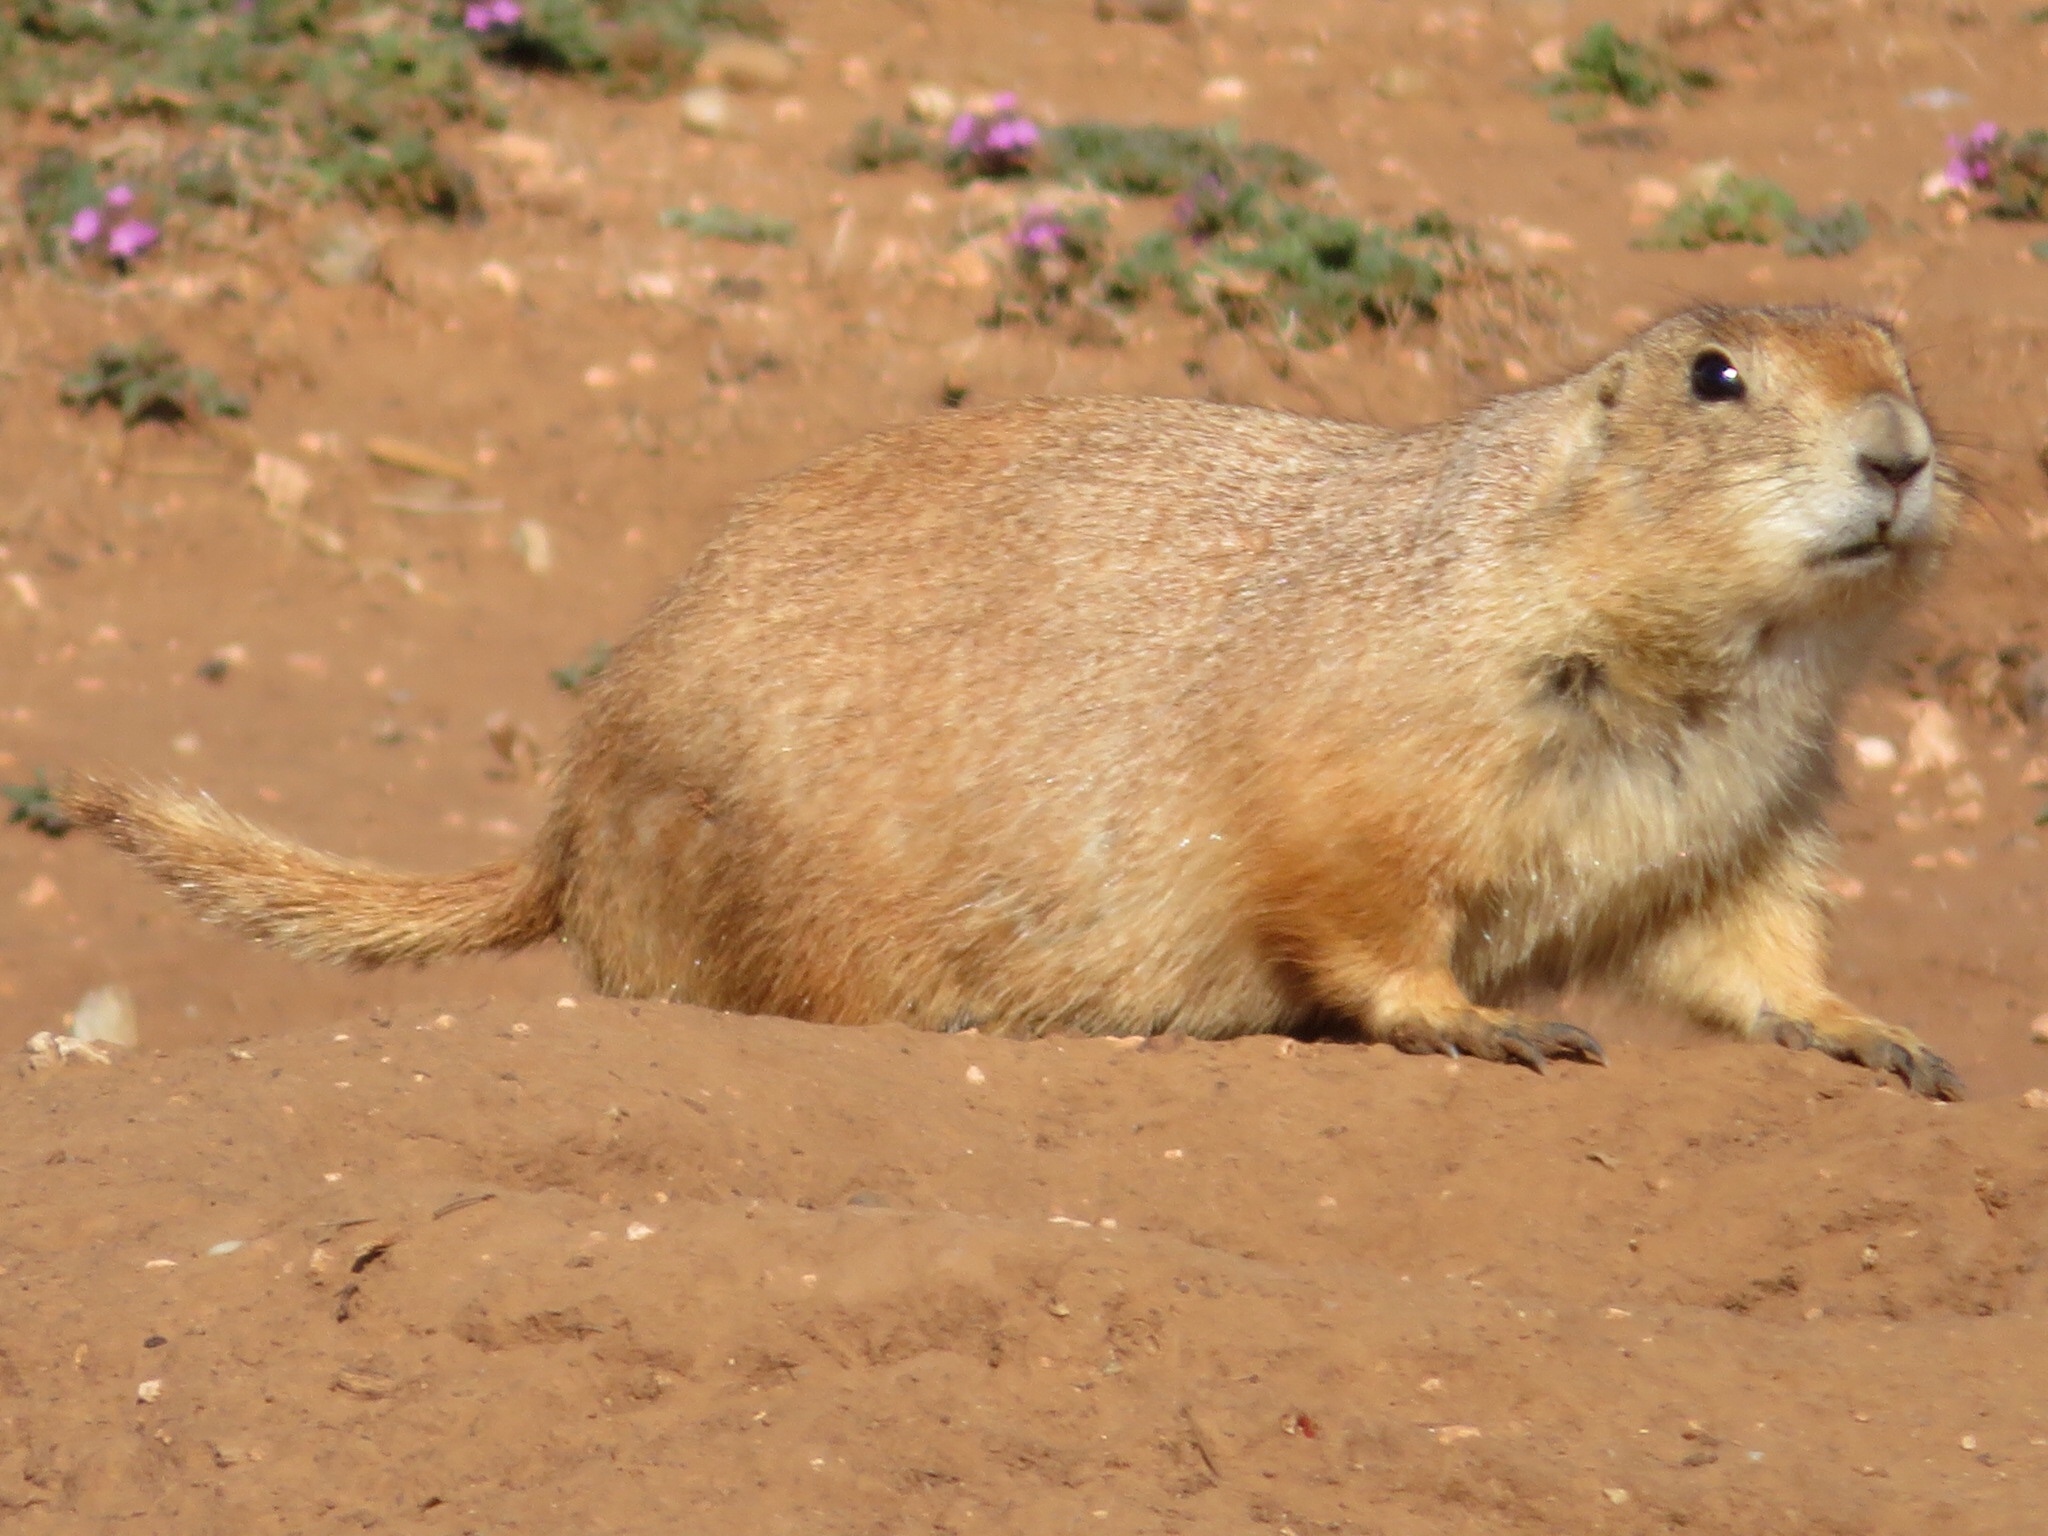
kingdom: Animalia
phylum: Chordata
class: Mammalia
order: Rodentia
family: Sciuridae
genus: Cynomys
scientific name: Cynomys ludovicianus
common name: Black-tailed prairie dog
